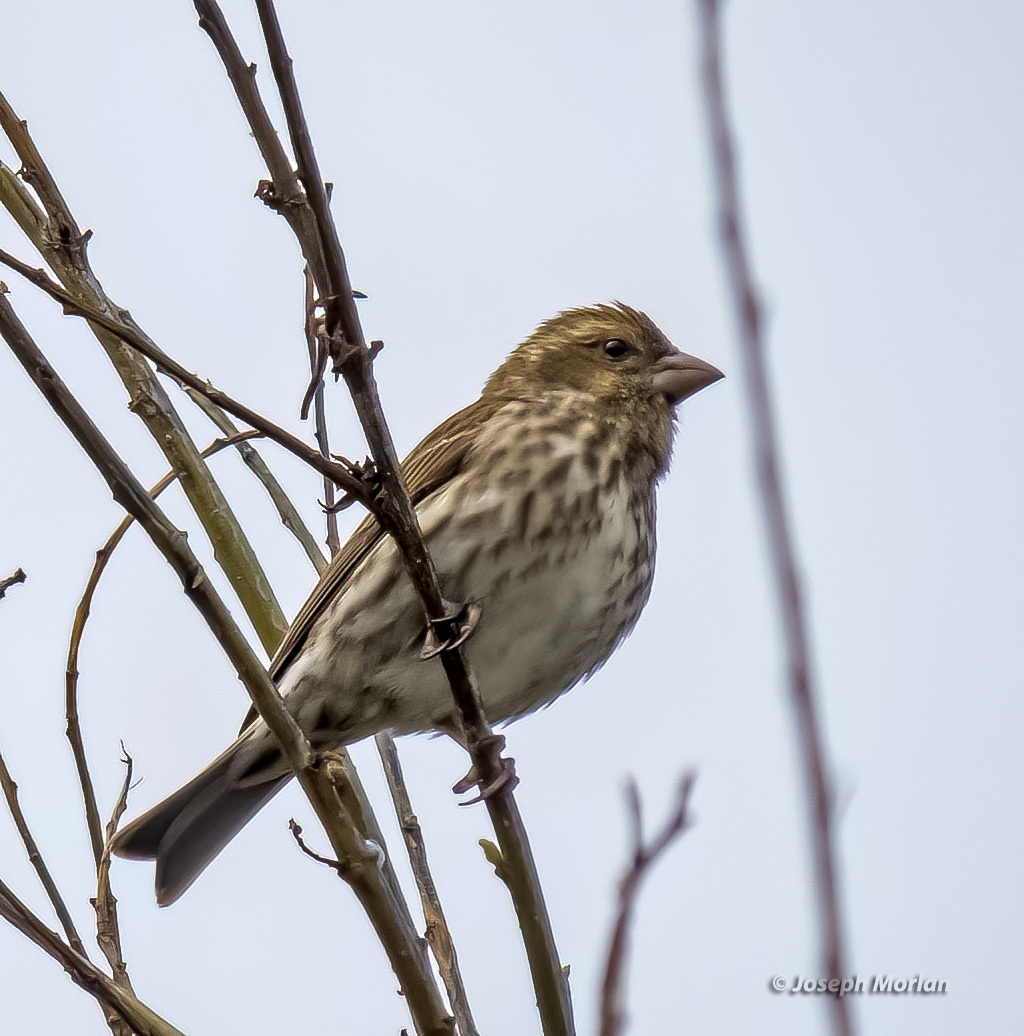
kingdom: Animalia
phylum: Chordata
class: Aves
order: Passeriformes
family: Fringillidae
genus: Haemorhous
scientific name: Haemorhous purpureus
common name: Purple finch
